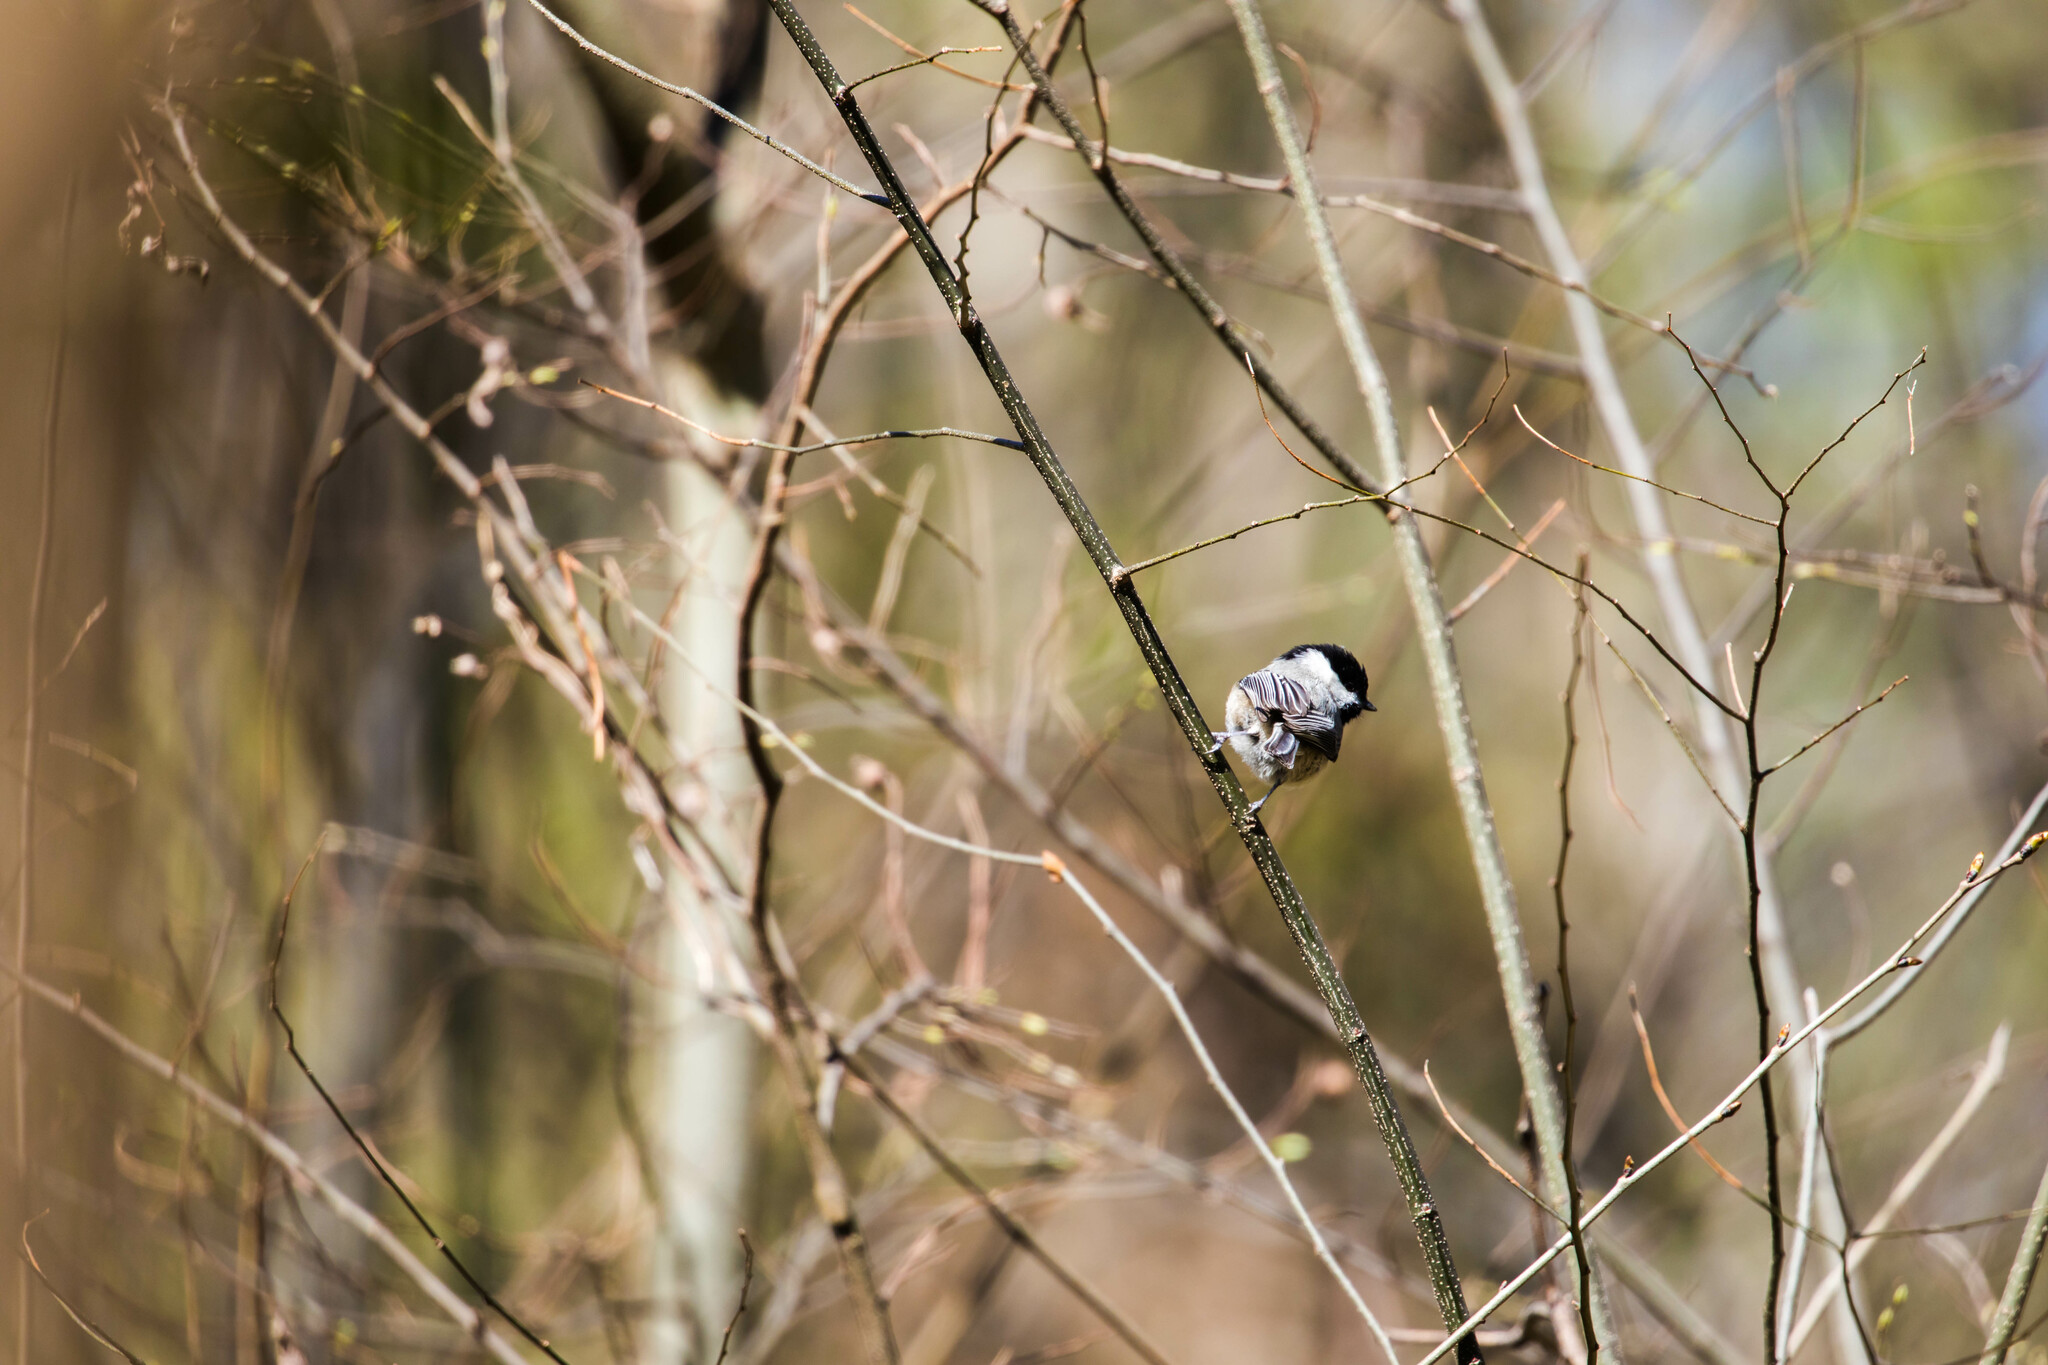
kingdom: Animalia
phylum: Chordata
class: Aves
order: Passeriformes
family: Paridae
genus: Poecile
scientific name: Poecile carolinensis
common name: Carolina chickadee
